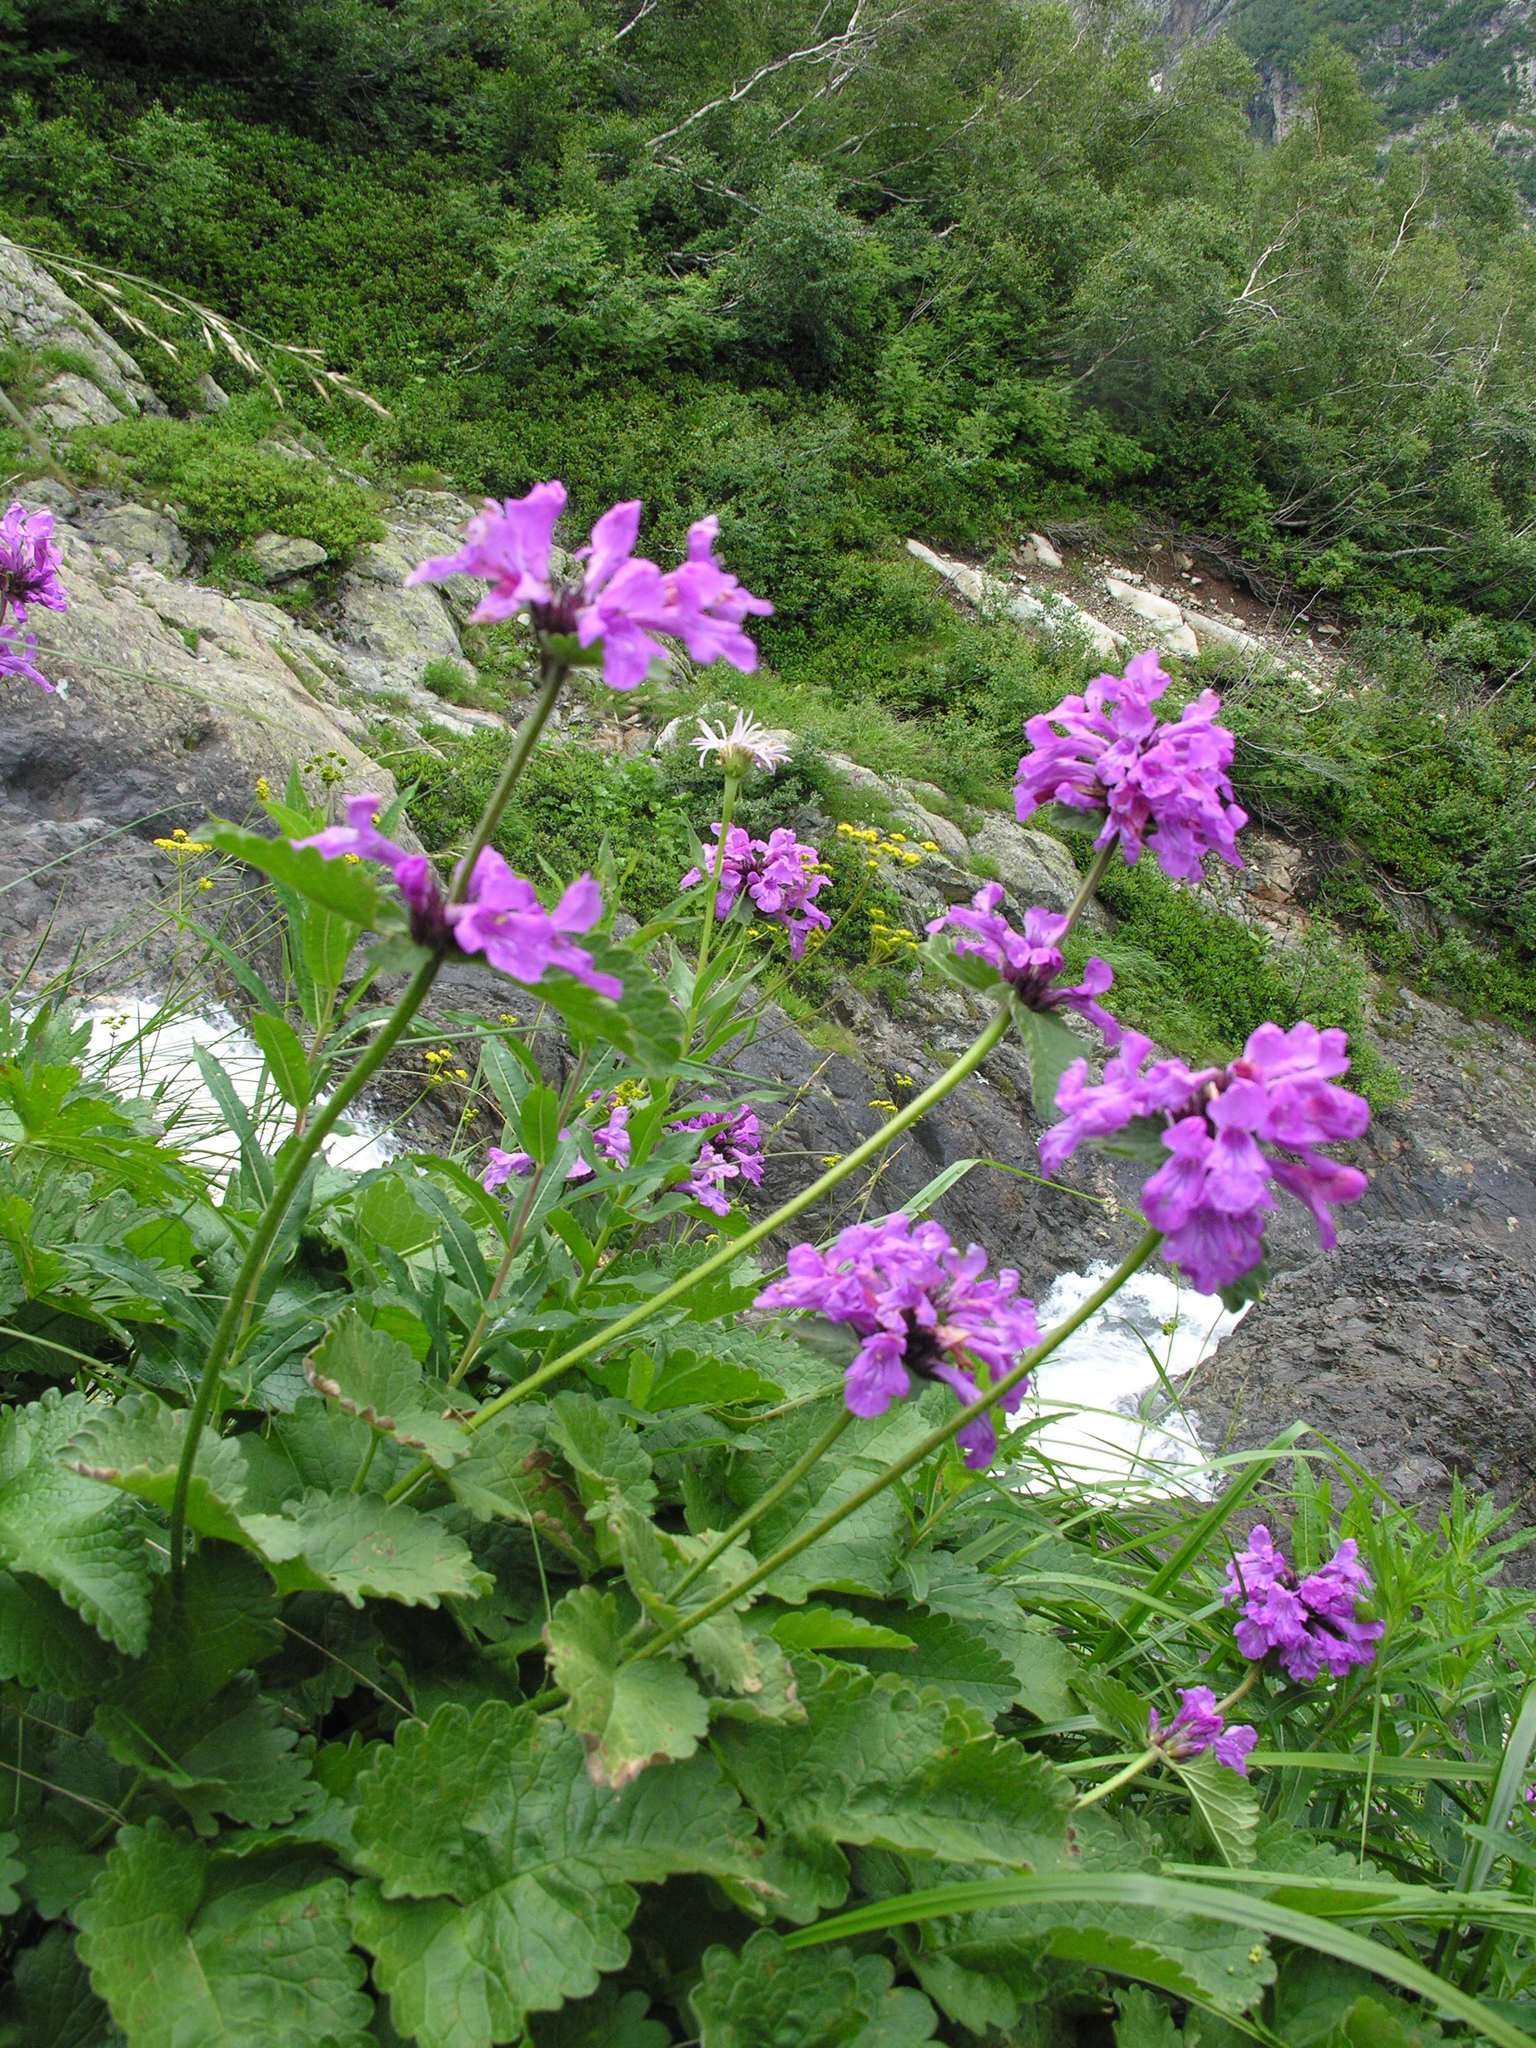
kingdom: Plantae
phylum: Tracheophyta
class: Magnoliopsida
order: Lamiales
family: Lamiaceae
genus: Betonica
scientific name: Betonica macrantha
